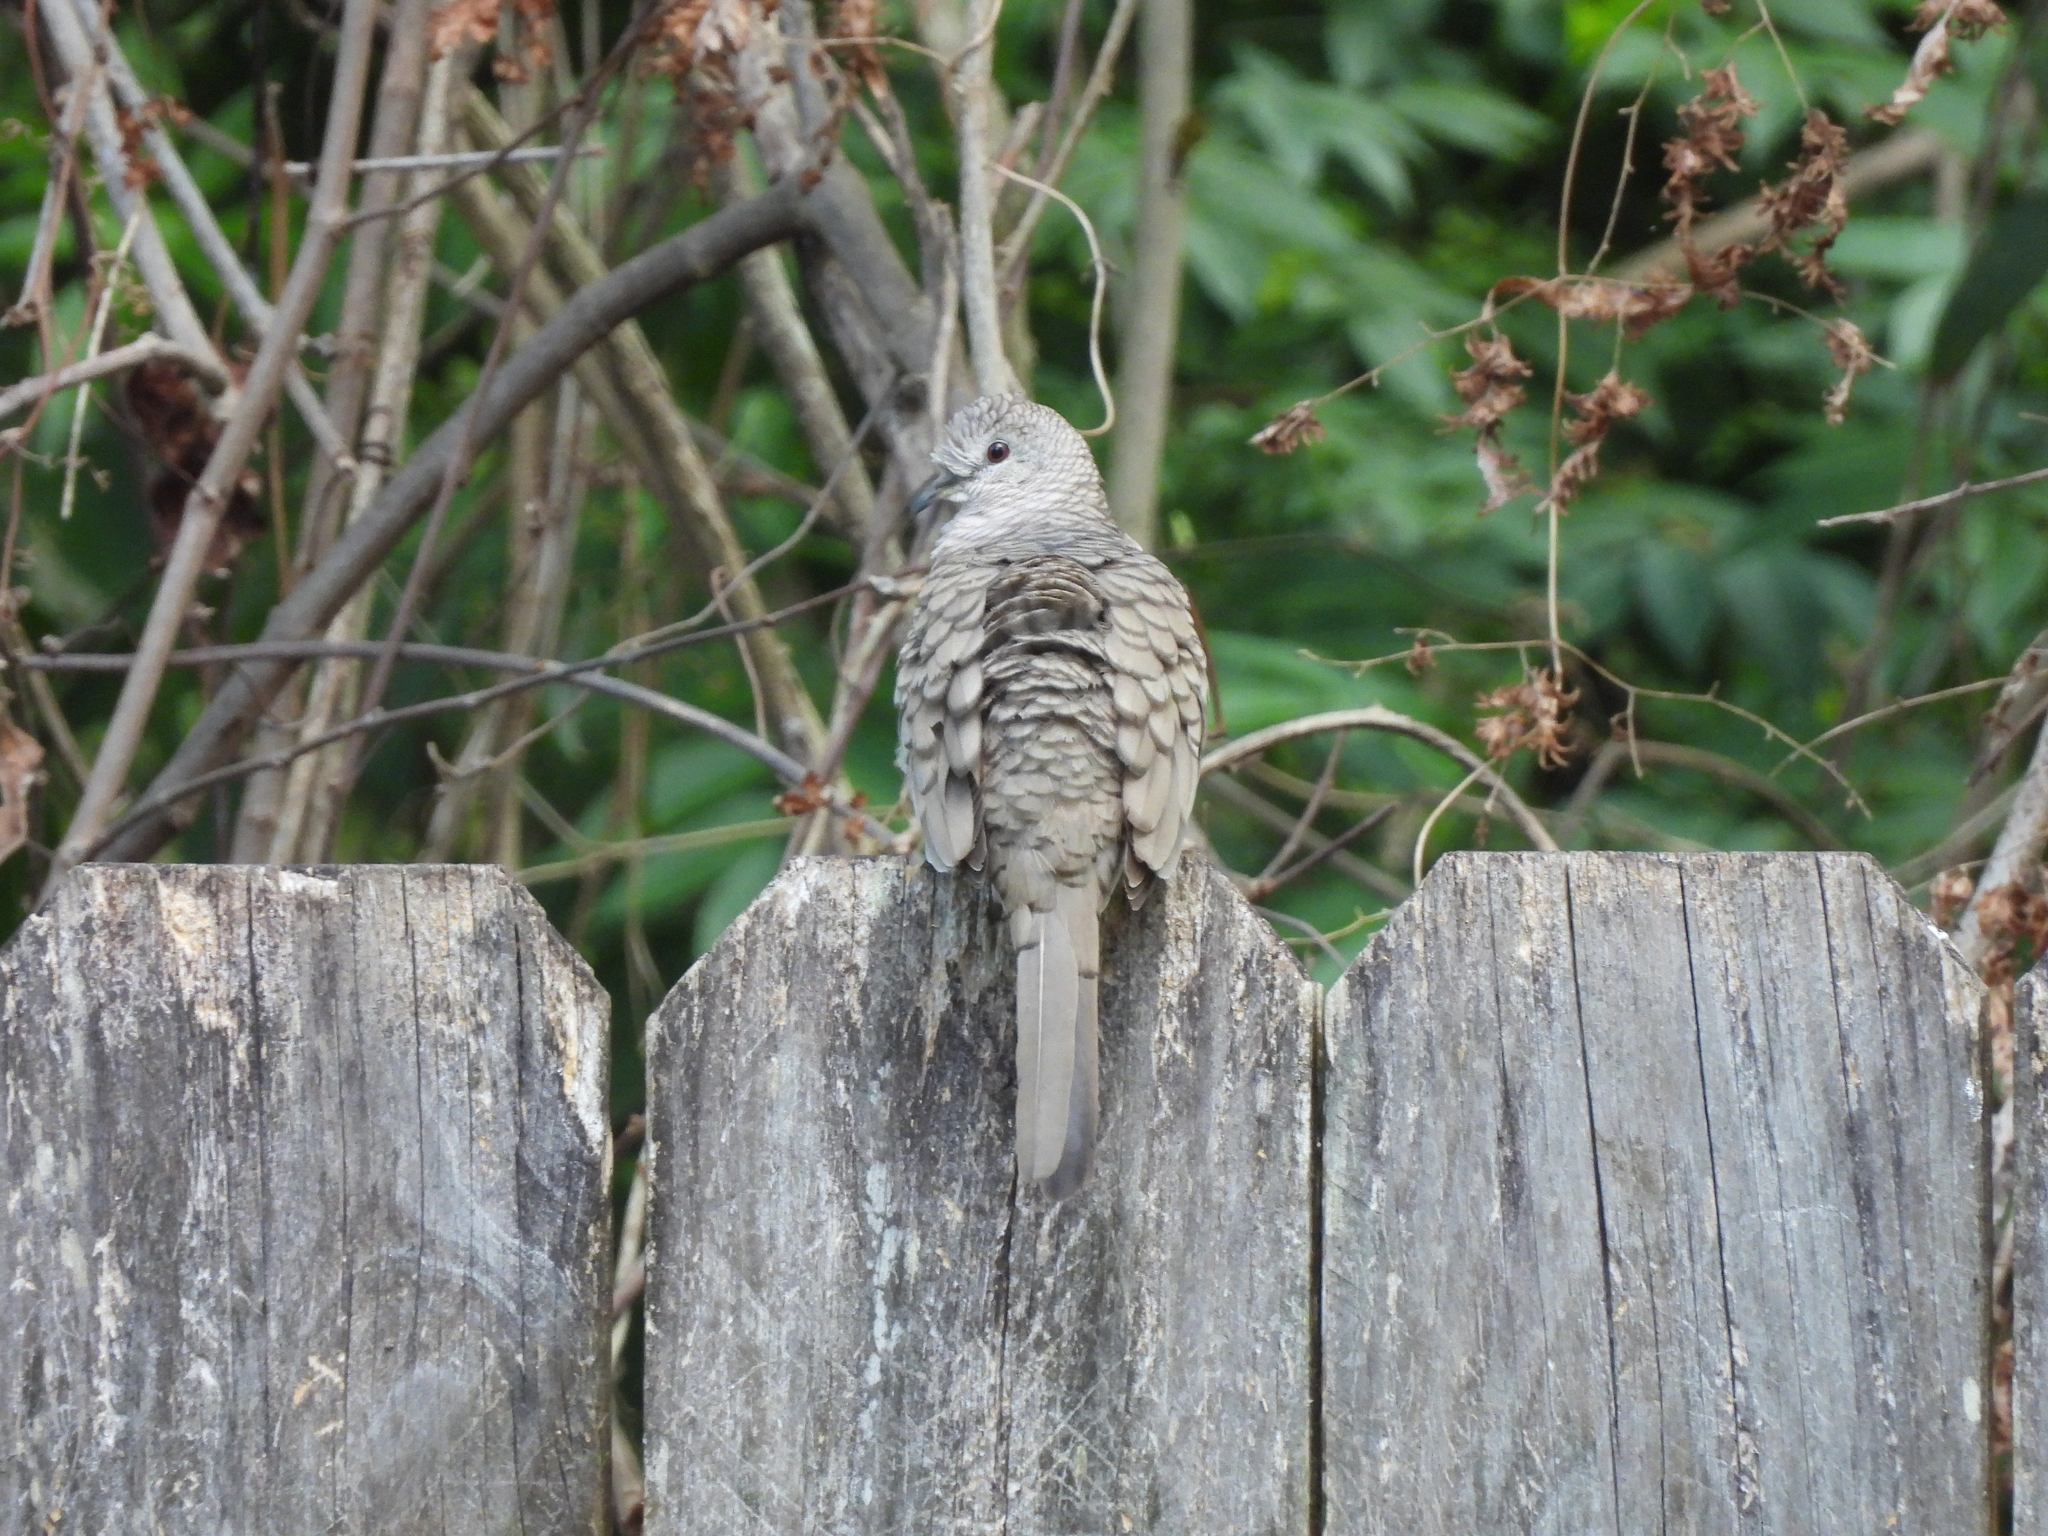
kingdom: Animalia
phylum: Chordata
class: Aves
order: Columbiformes
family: Columbidae
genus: Columbina
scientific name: Columbina inca
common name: Inca dove
